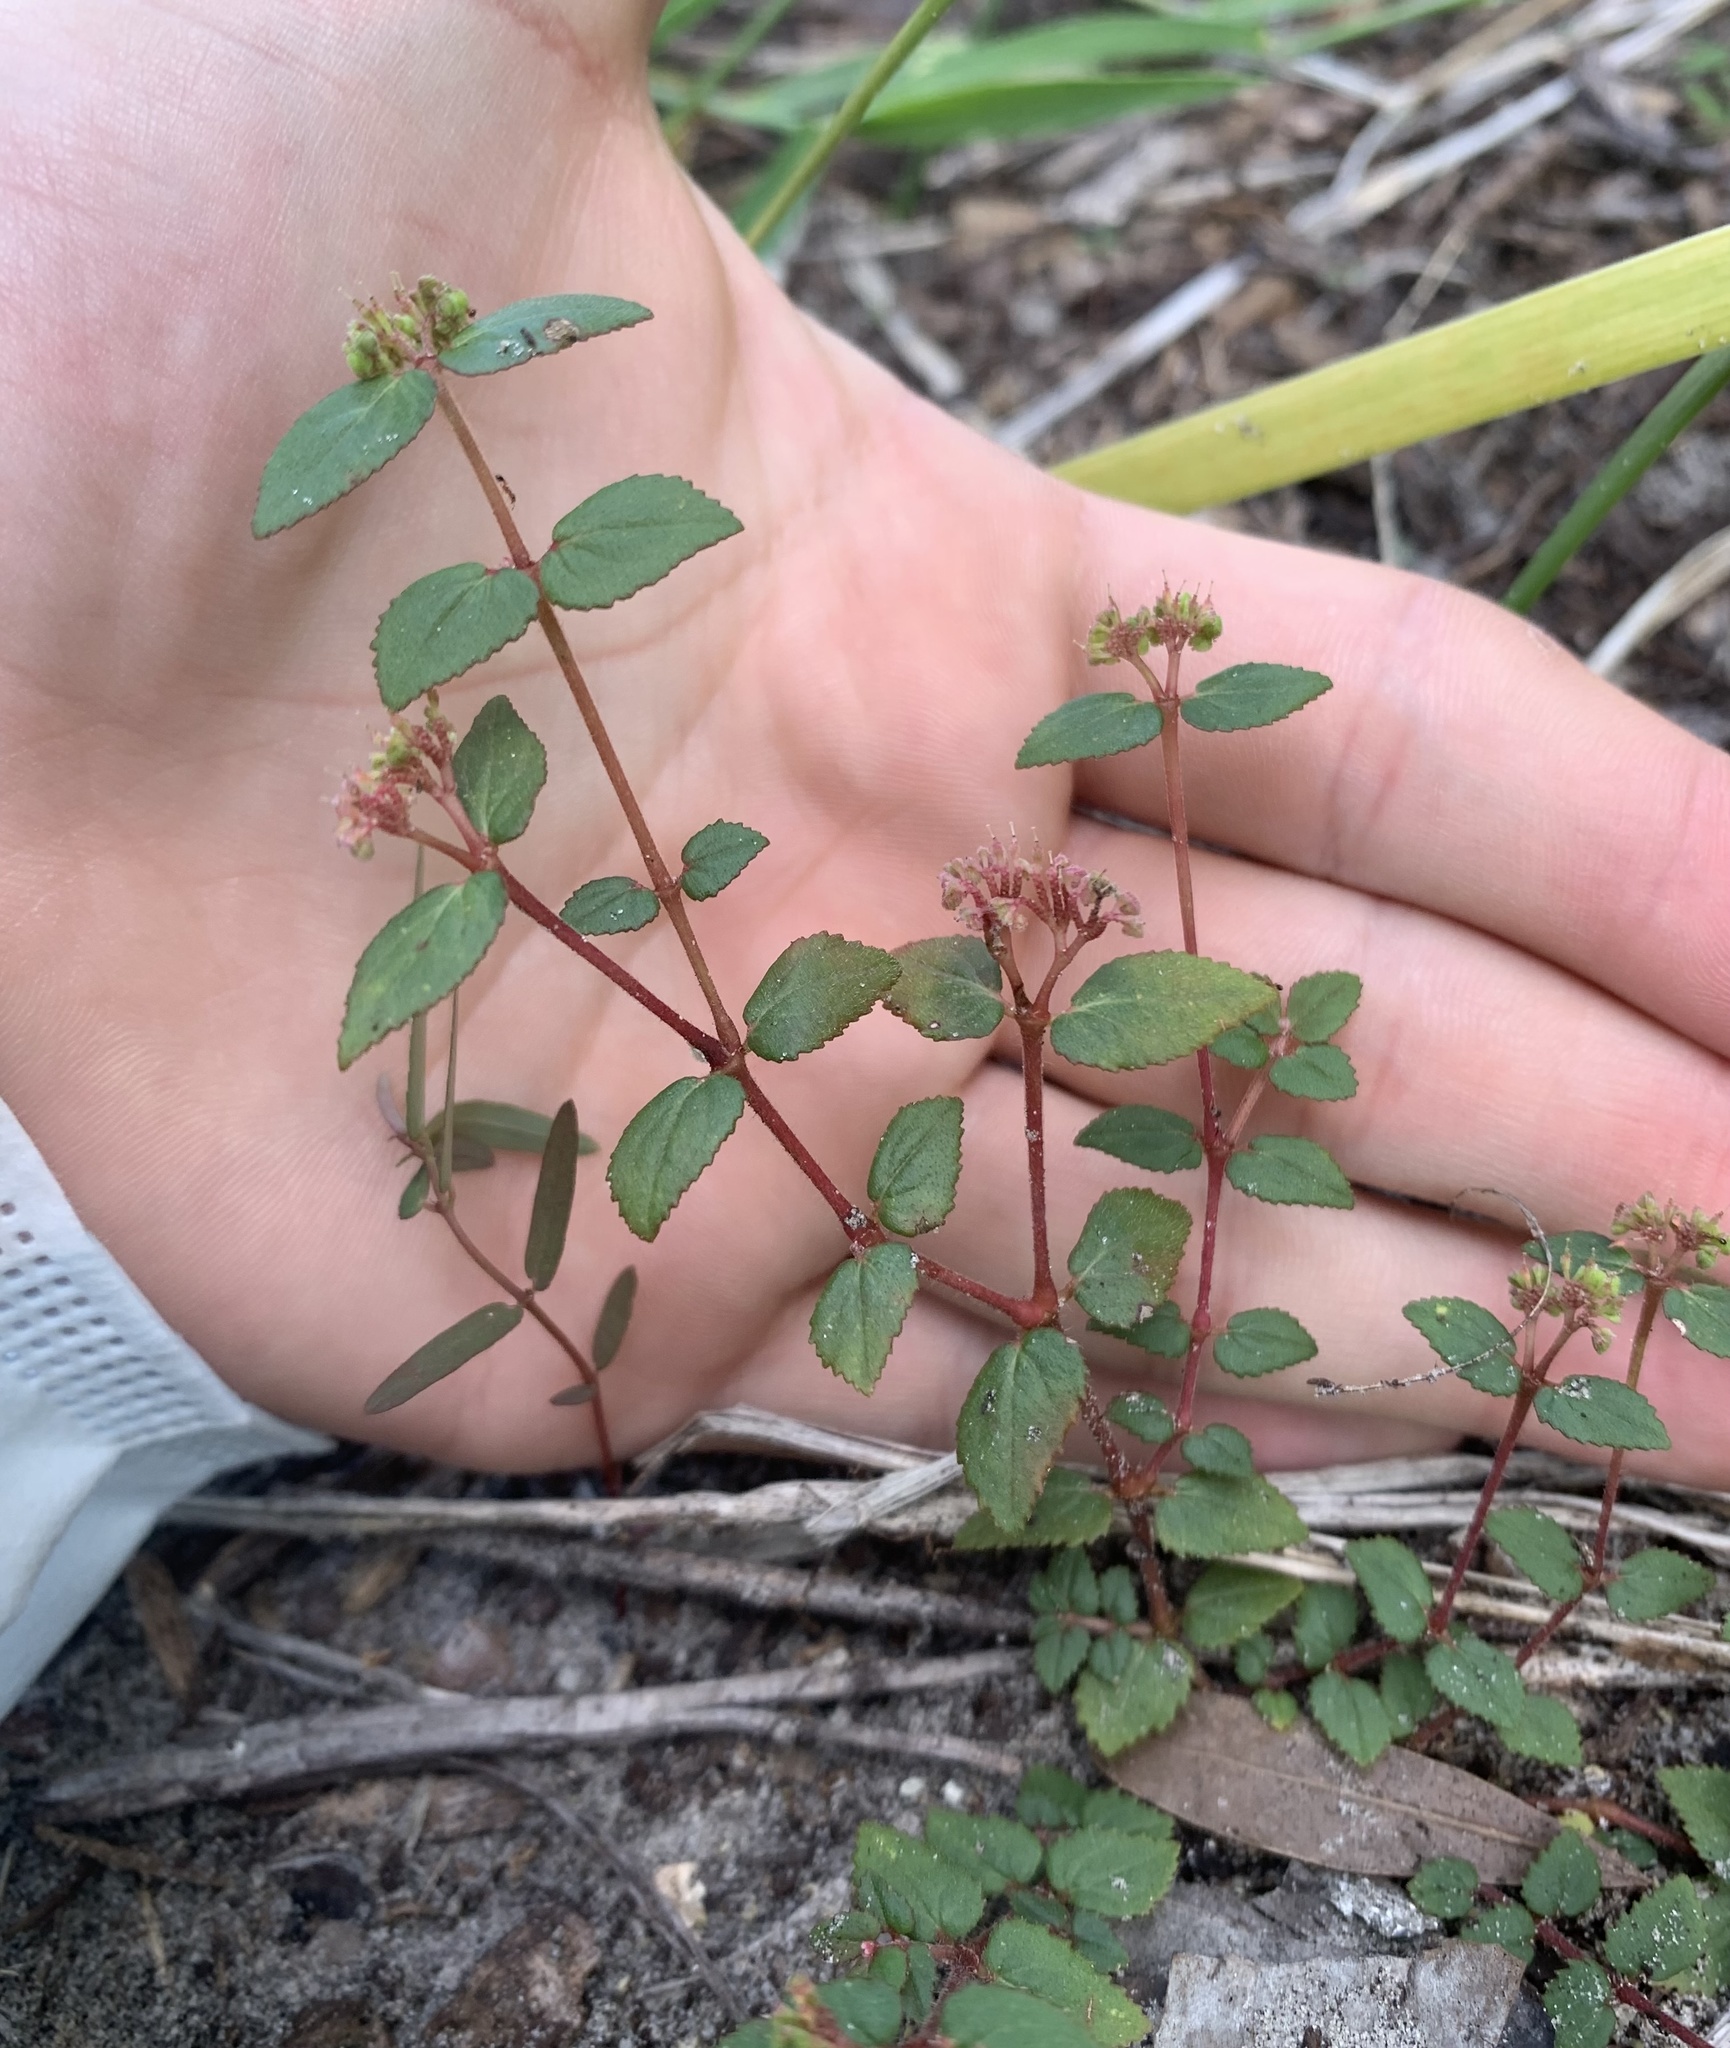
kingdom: Plantae
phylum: Tracheophyta
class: Magnoliopsida
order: Malpighiales
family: Euphorbiaceae
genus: Euphorbia
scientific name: Euphorbia ophthalmica
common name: Florida hammock sandmat
